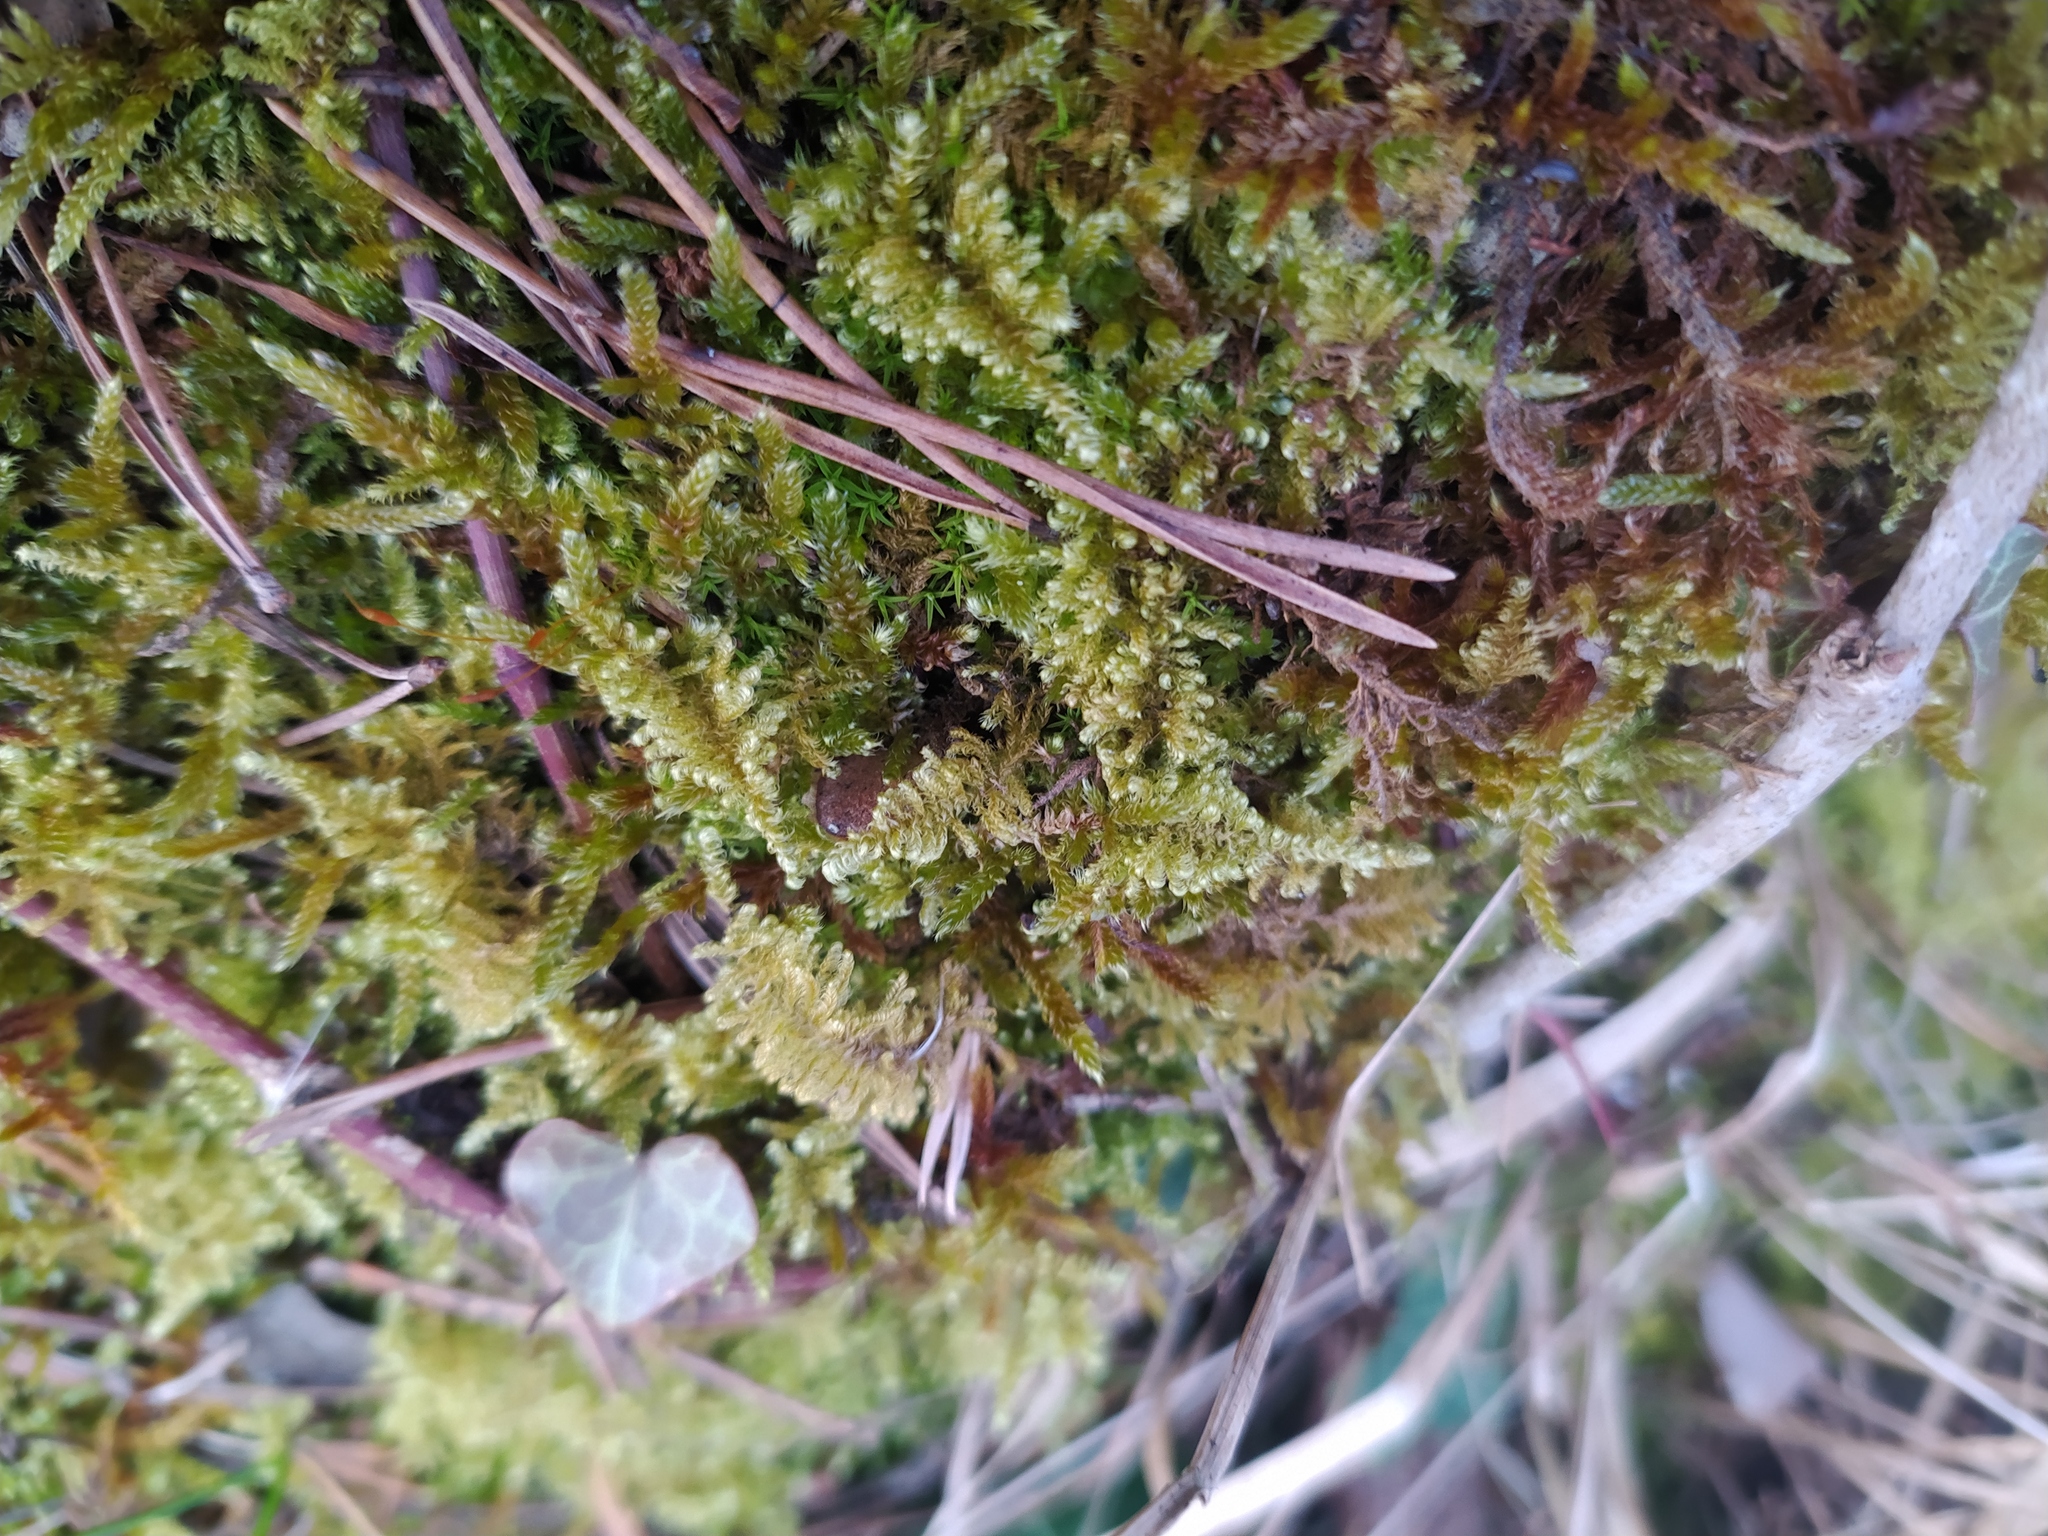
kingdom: Plantae
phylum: Bryophyta
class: Bryopsida
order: Hypnales
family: Myuriaceae
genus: Ctenidium
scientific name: Ctenidium molluscum
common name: Chalk comb-moss
